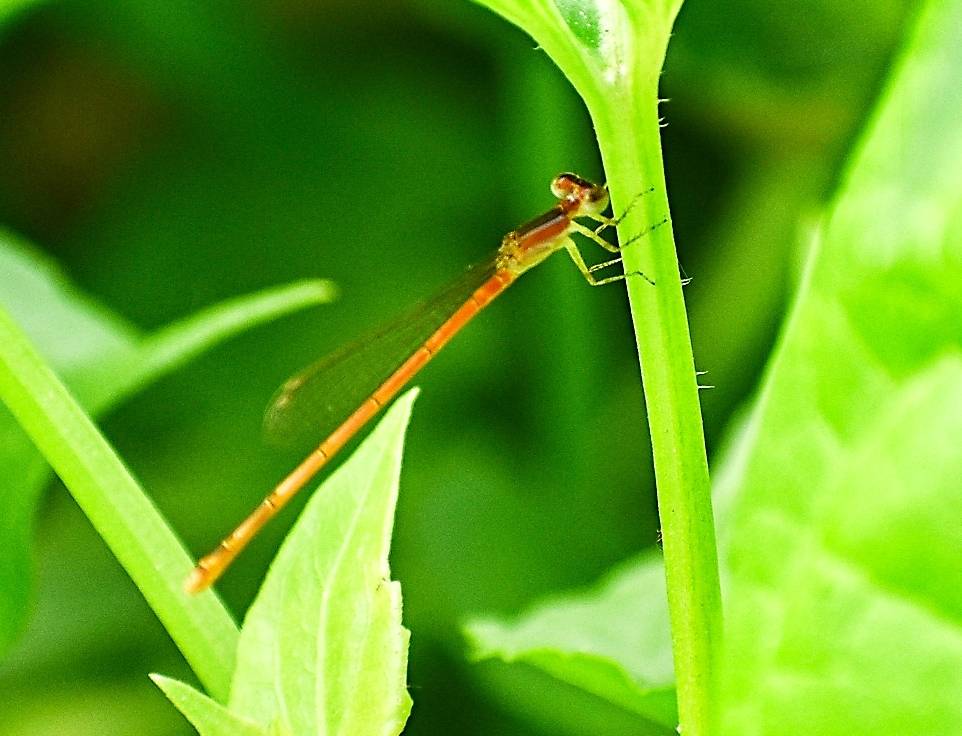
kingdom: Animalia
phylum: Arthropoda
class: Insecta
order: Odonata
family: Coenagrionidae
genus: Agriocnemis
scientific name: Agriocnemis pygmaea
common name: Pygmy wisp
